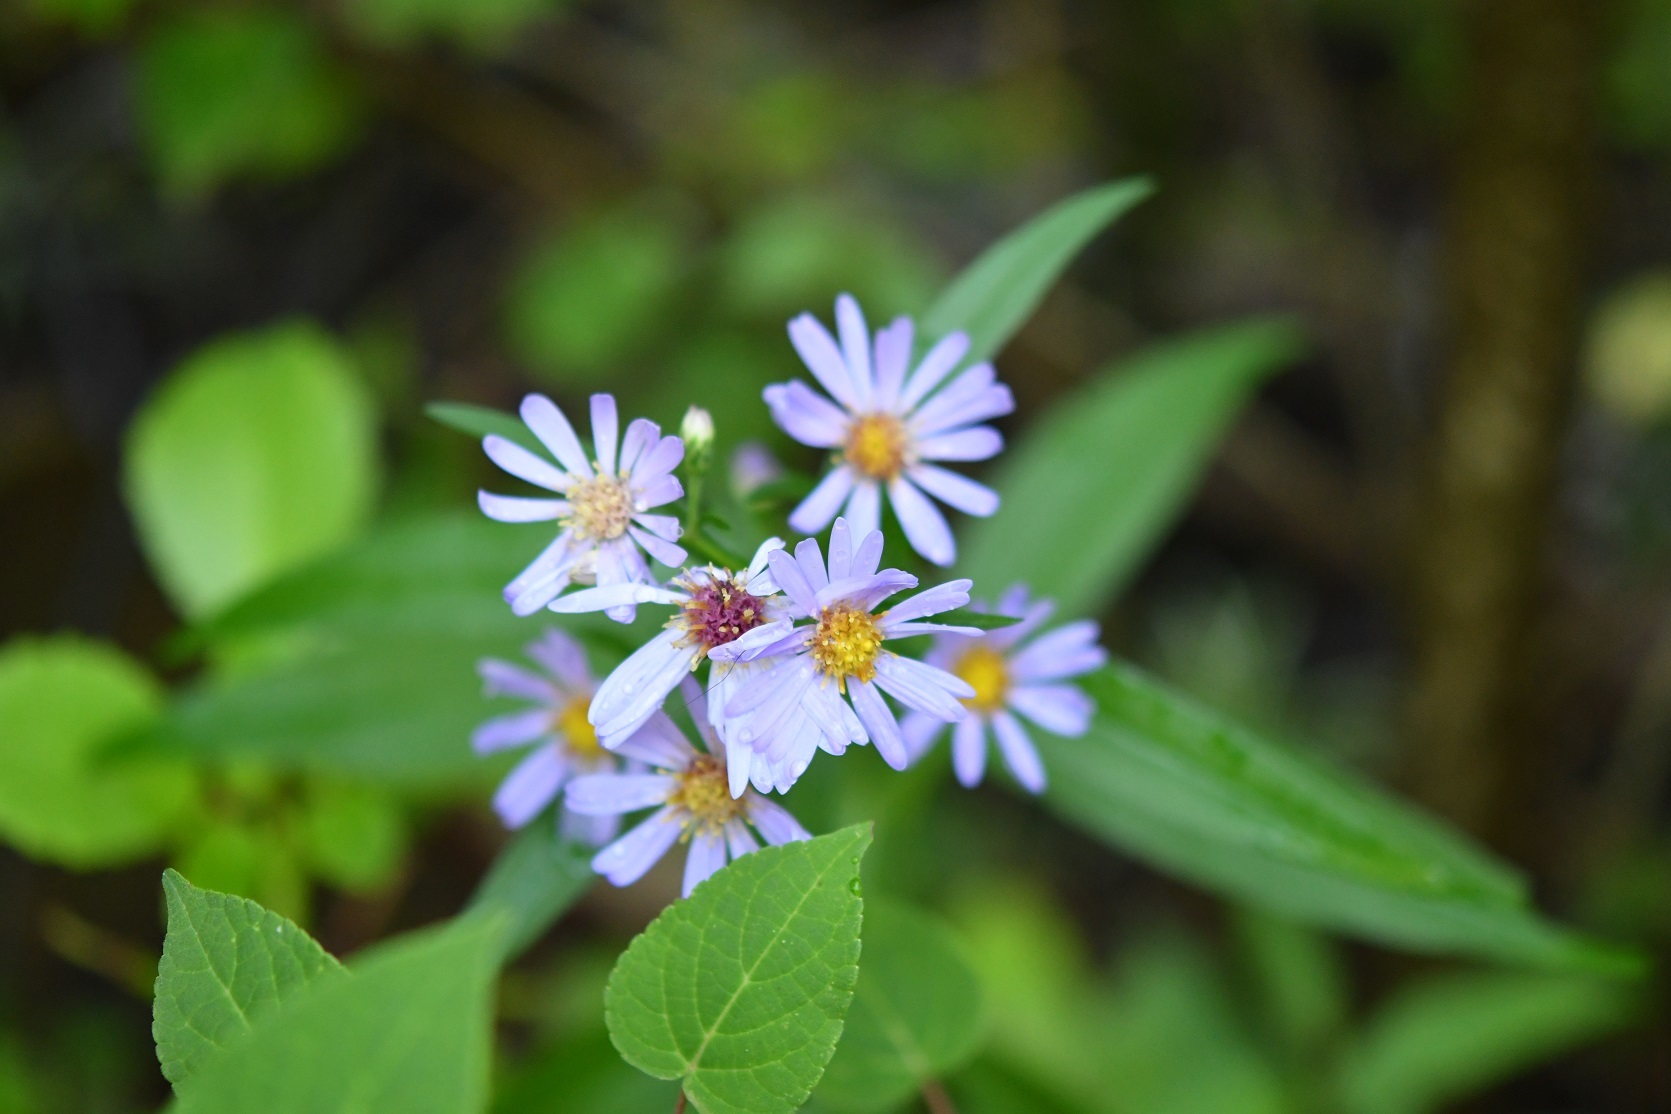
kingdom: Plantae
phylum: Tracheophyta
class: Magnoliopsida
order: Asterales
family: Asteraceae
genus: Symphyotrichum
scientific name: Symphyotrichum laeve
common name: Glaucous aster
